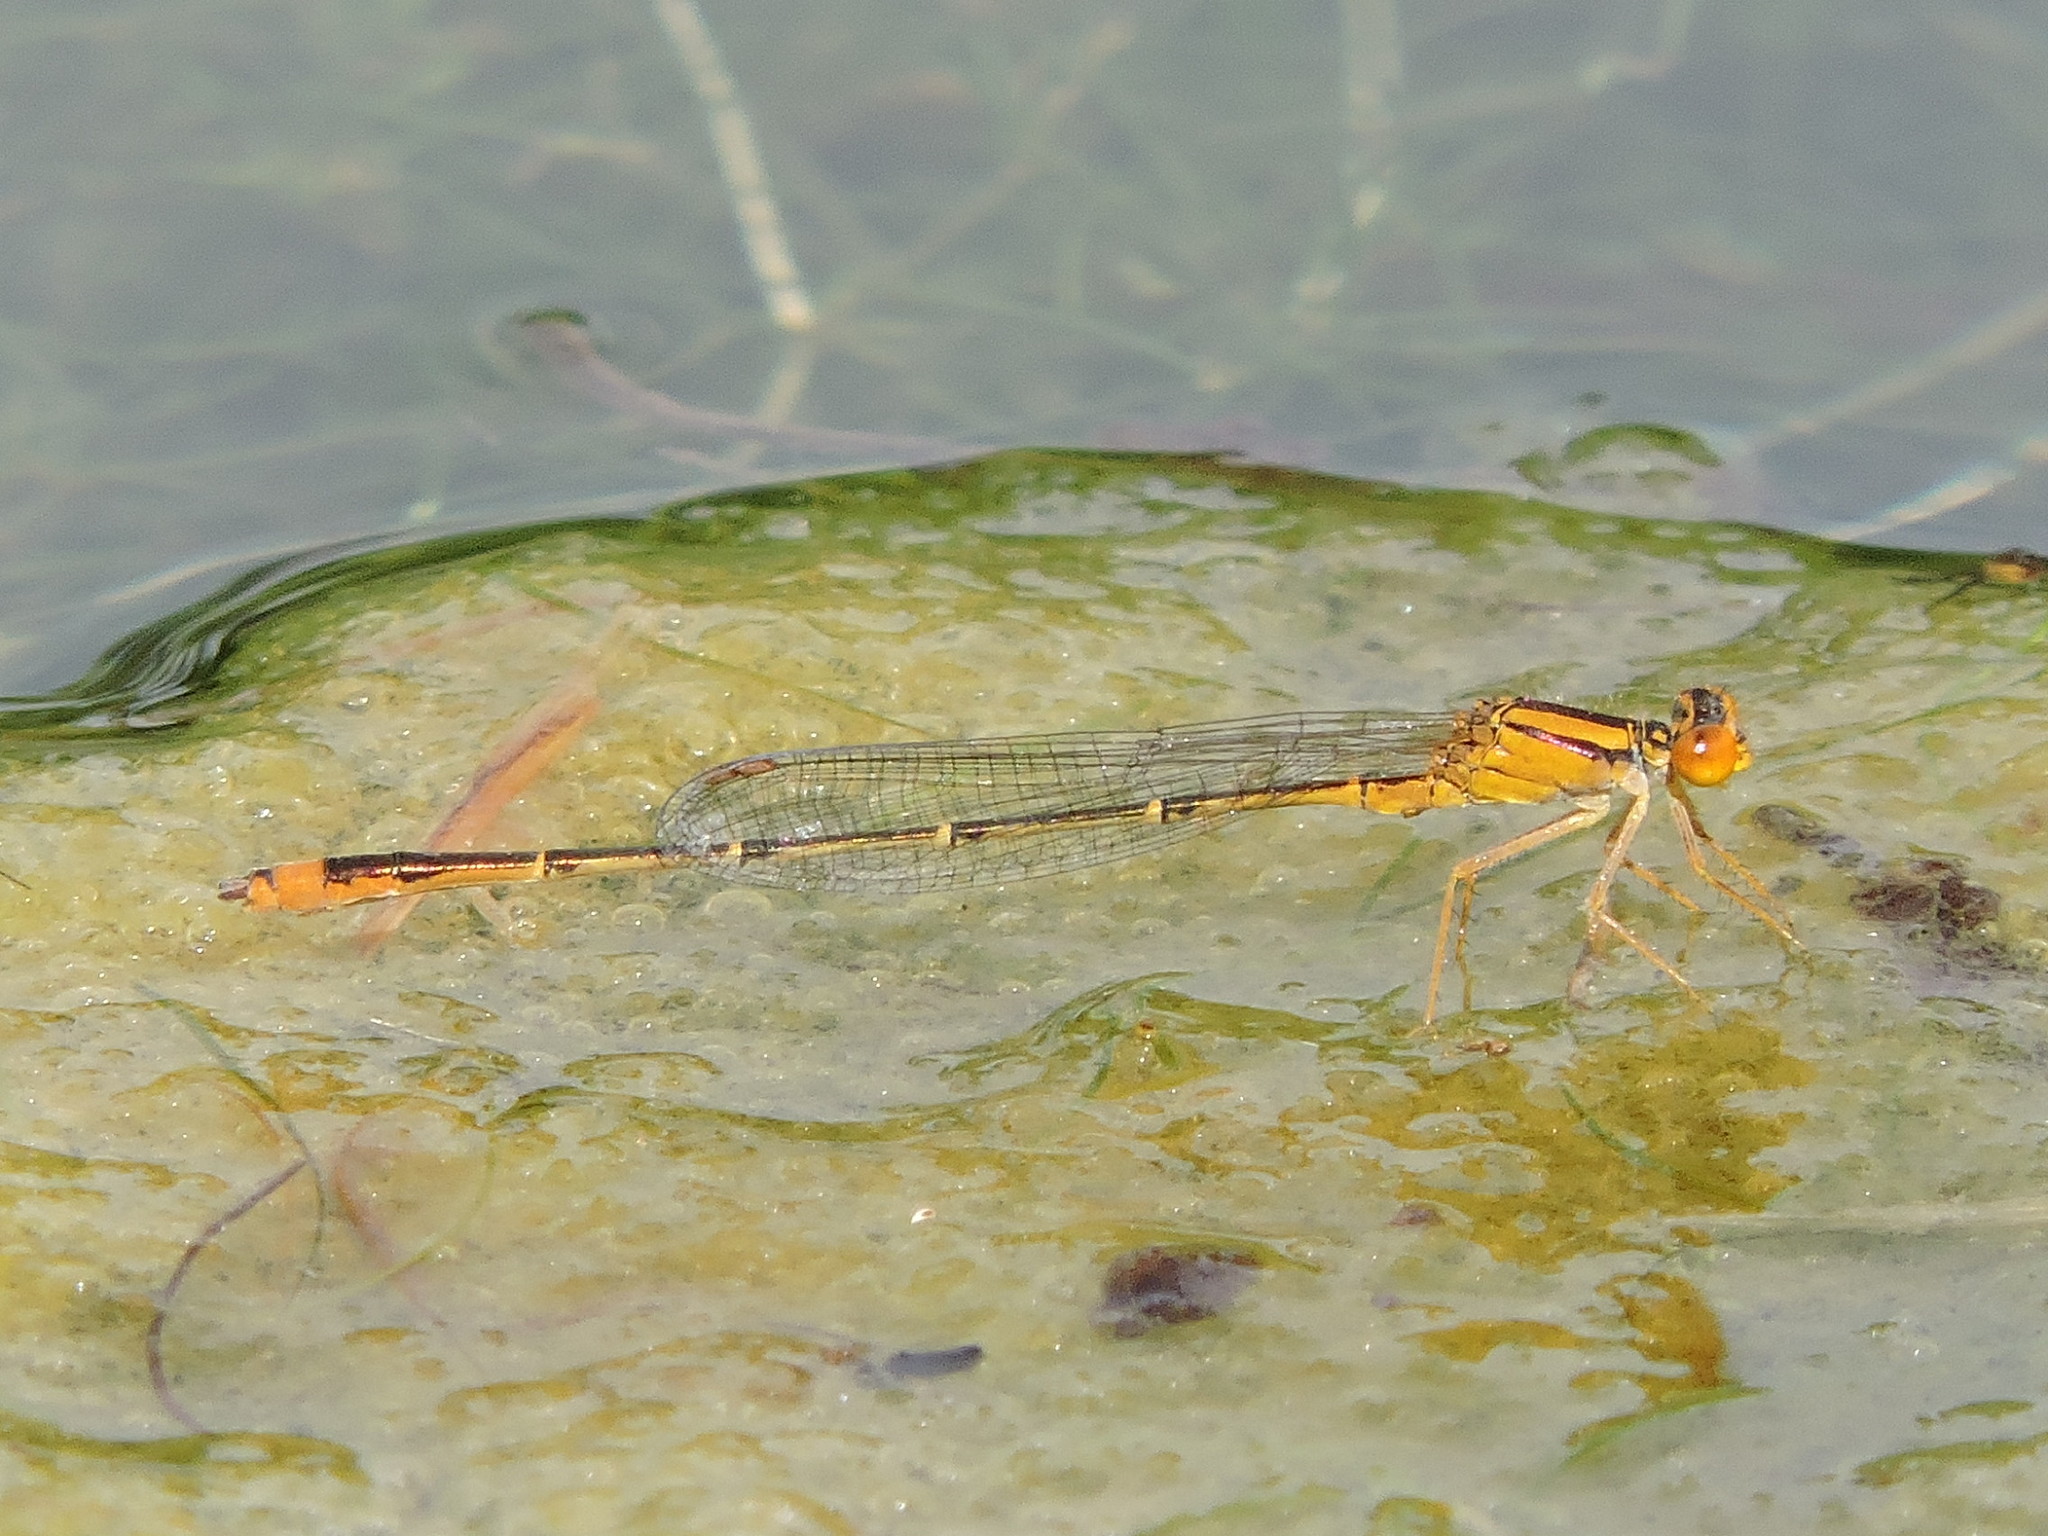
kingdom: Animalia
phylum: Arthropoda
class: Insecta
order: Odonata
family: Coenagrionidae
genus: Enallagma
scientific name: Enallagma signatum
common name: Orange bluet
